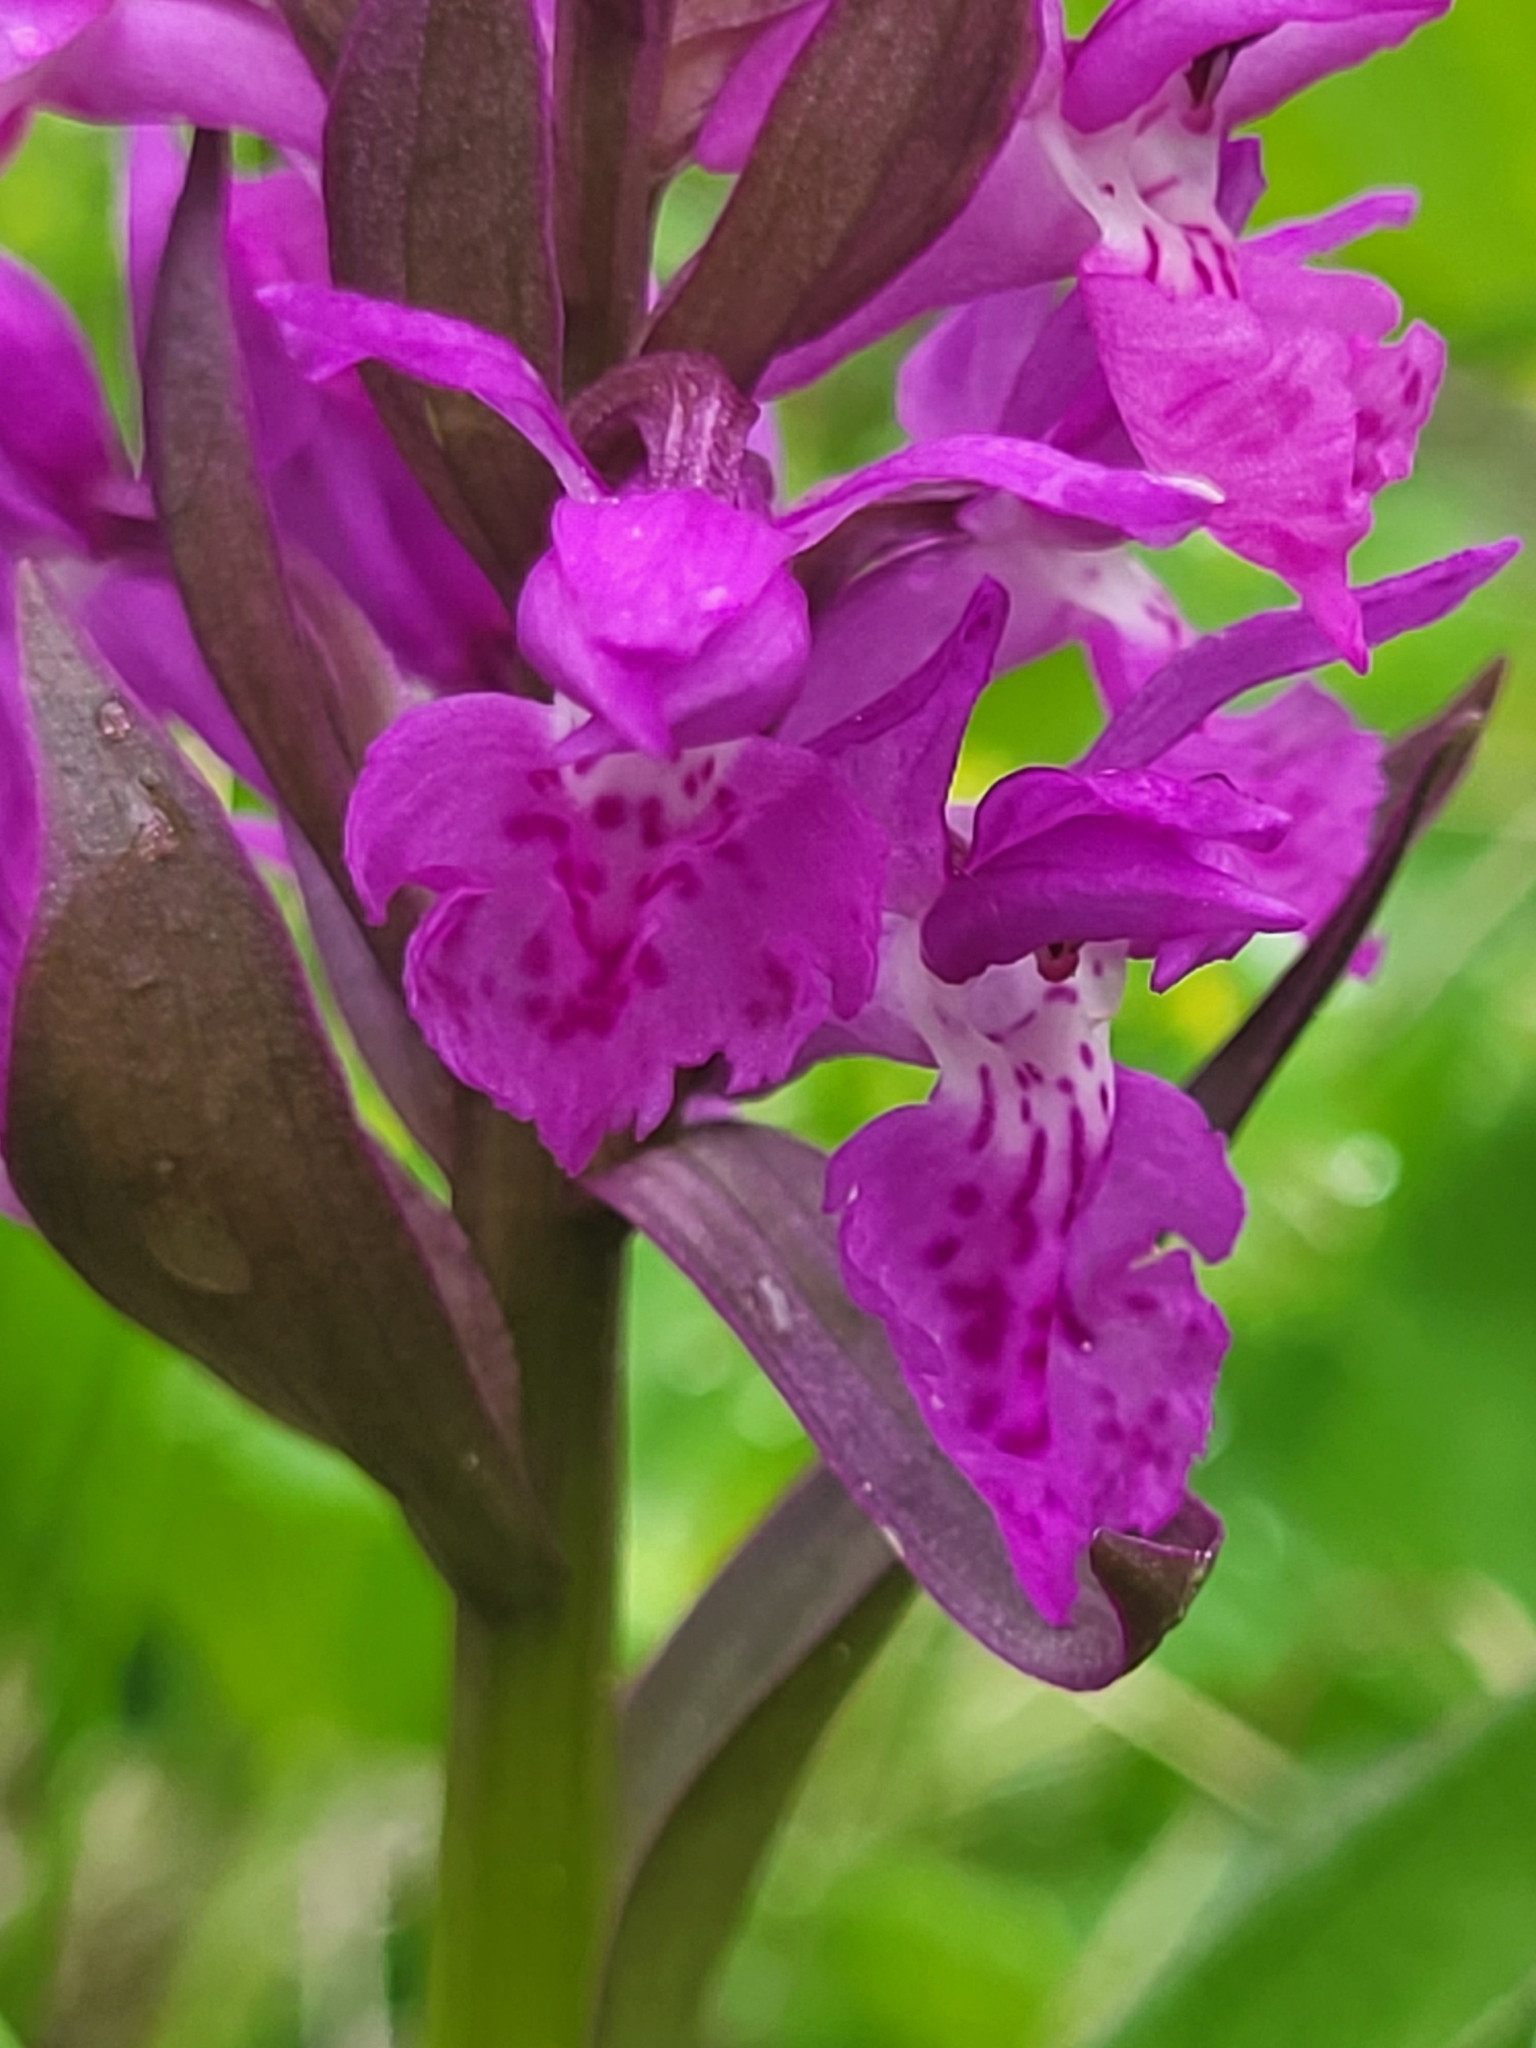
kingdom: Plantae
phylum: Tracheophyta
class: Liliopsida
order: Asparagales
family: Orchidaceae
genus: Dactylorhiza
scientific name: Dactylorhiza euxina
